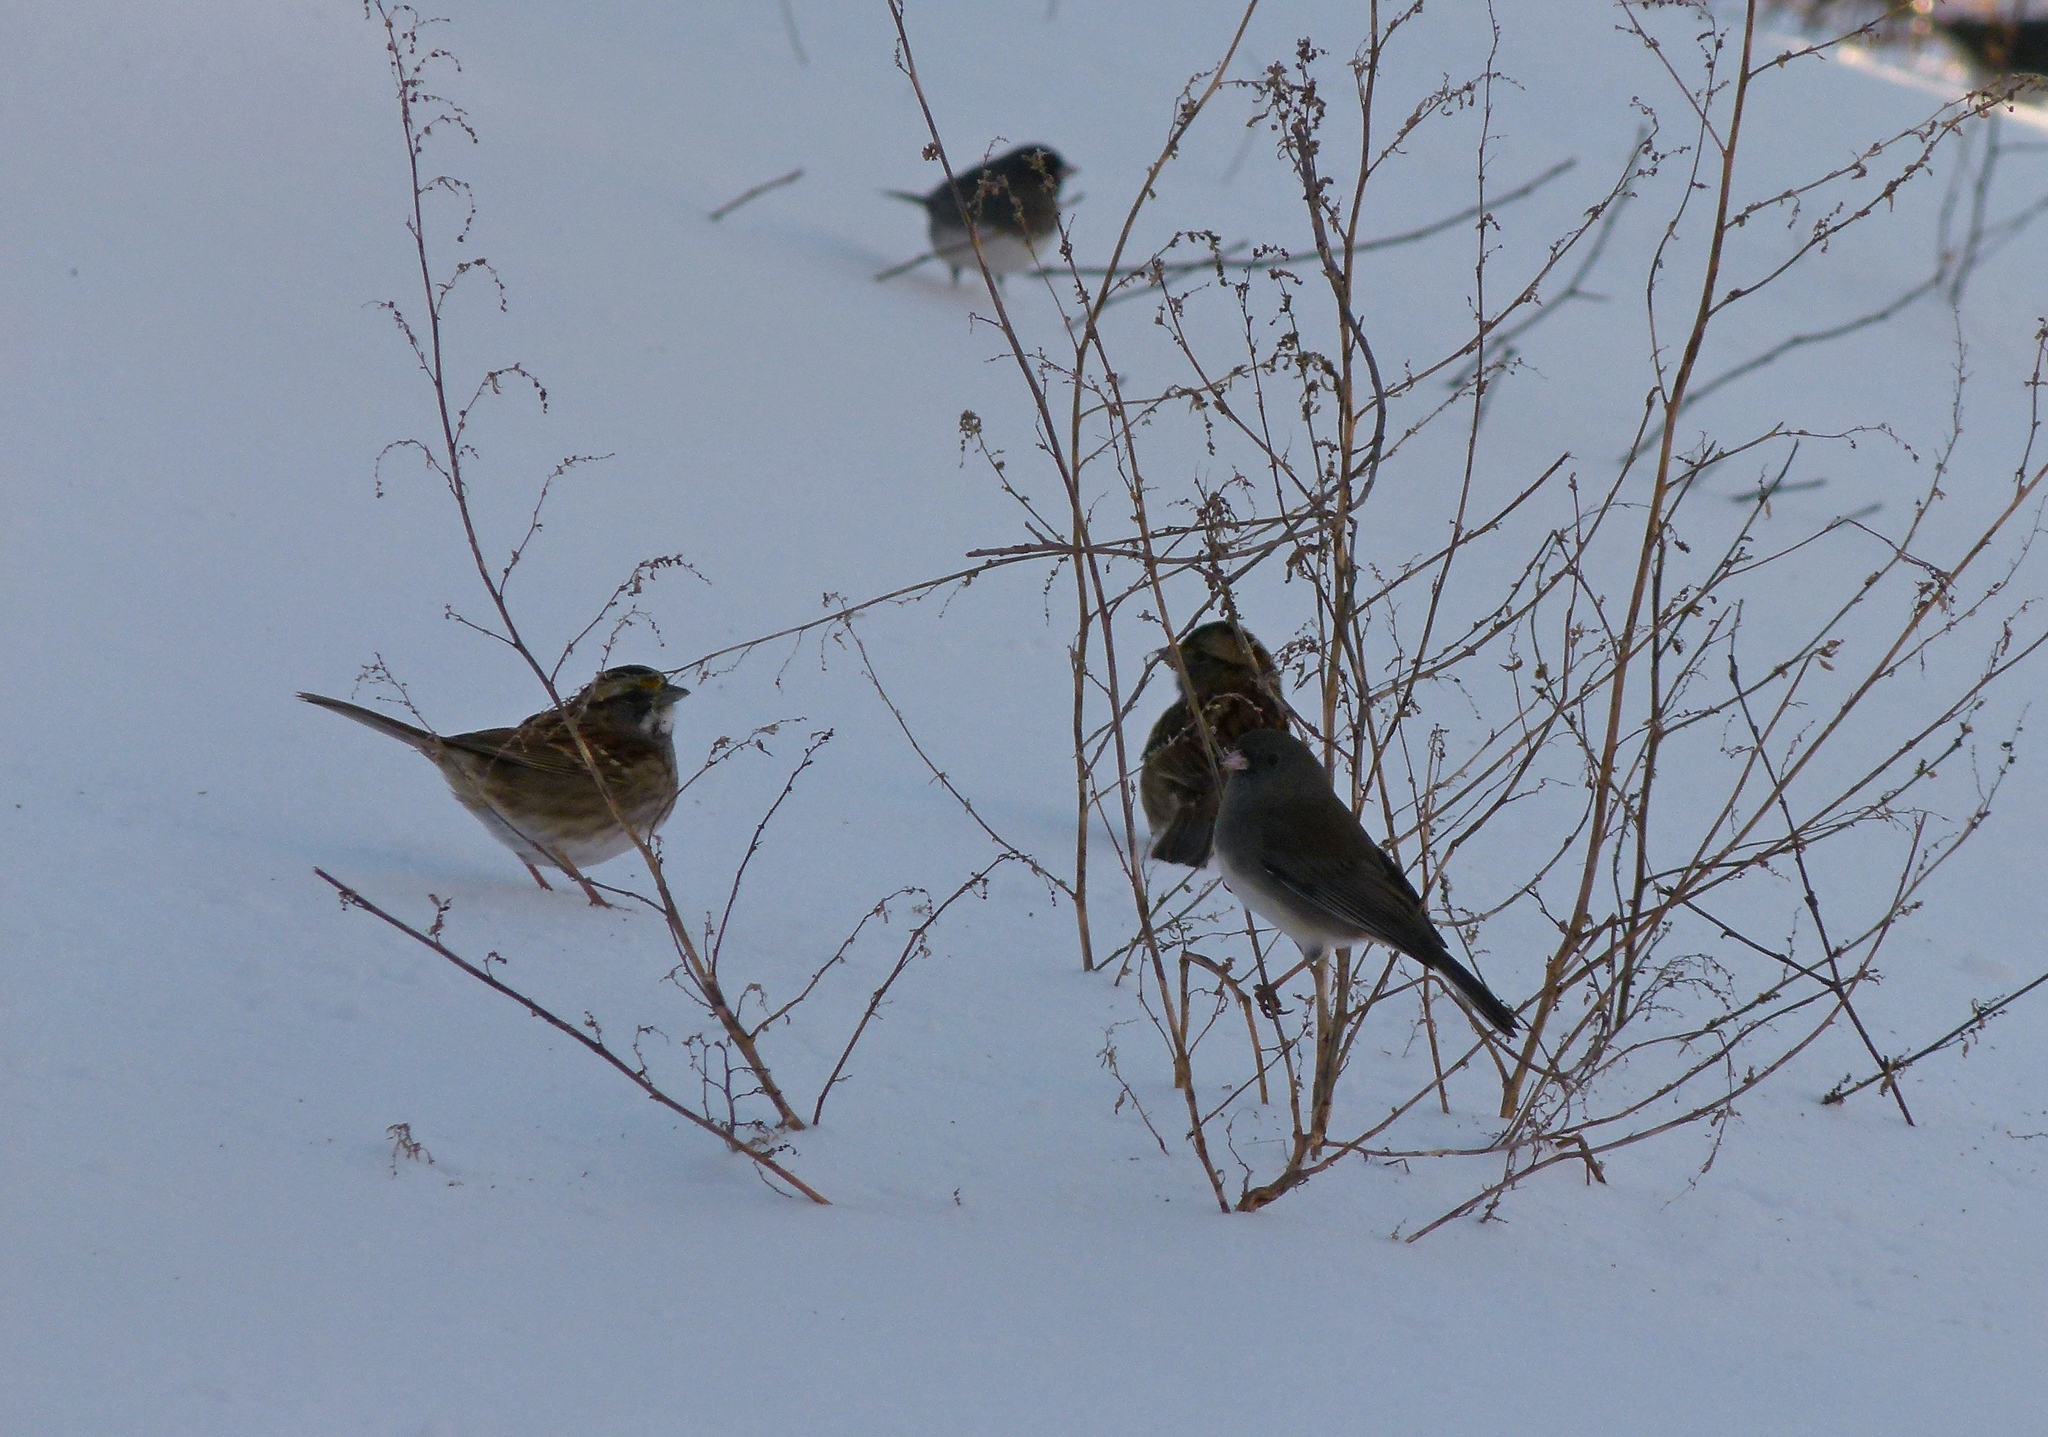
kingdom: Animalia
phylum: Chordata
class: Aves
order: Passeriformes
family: Passerellidae
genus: Junco
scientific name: Junco hyemalis
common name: Dark-eyed junco
